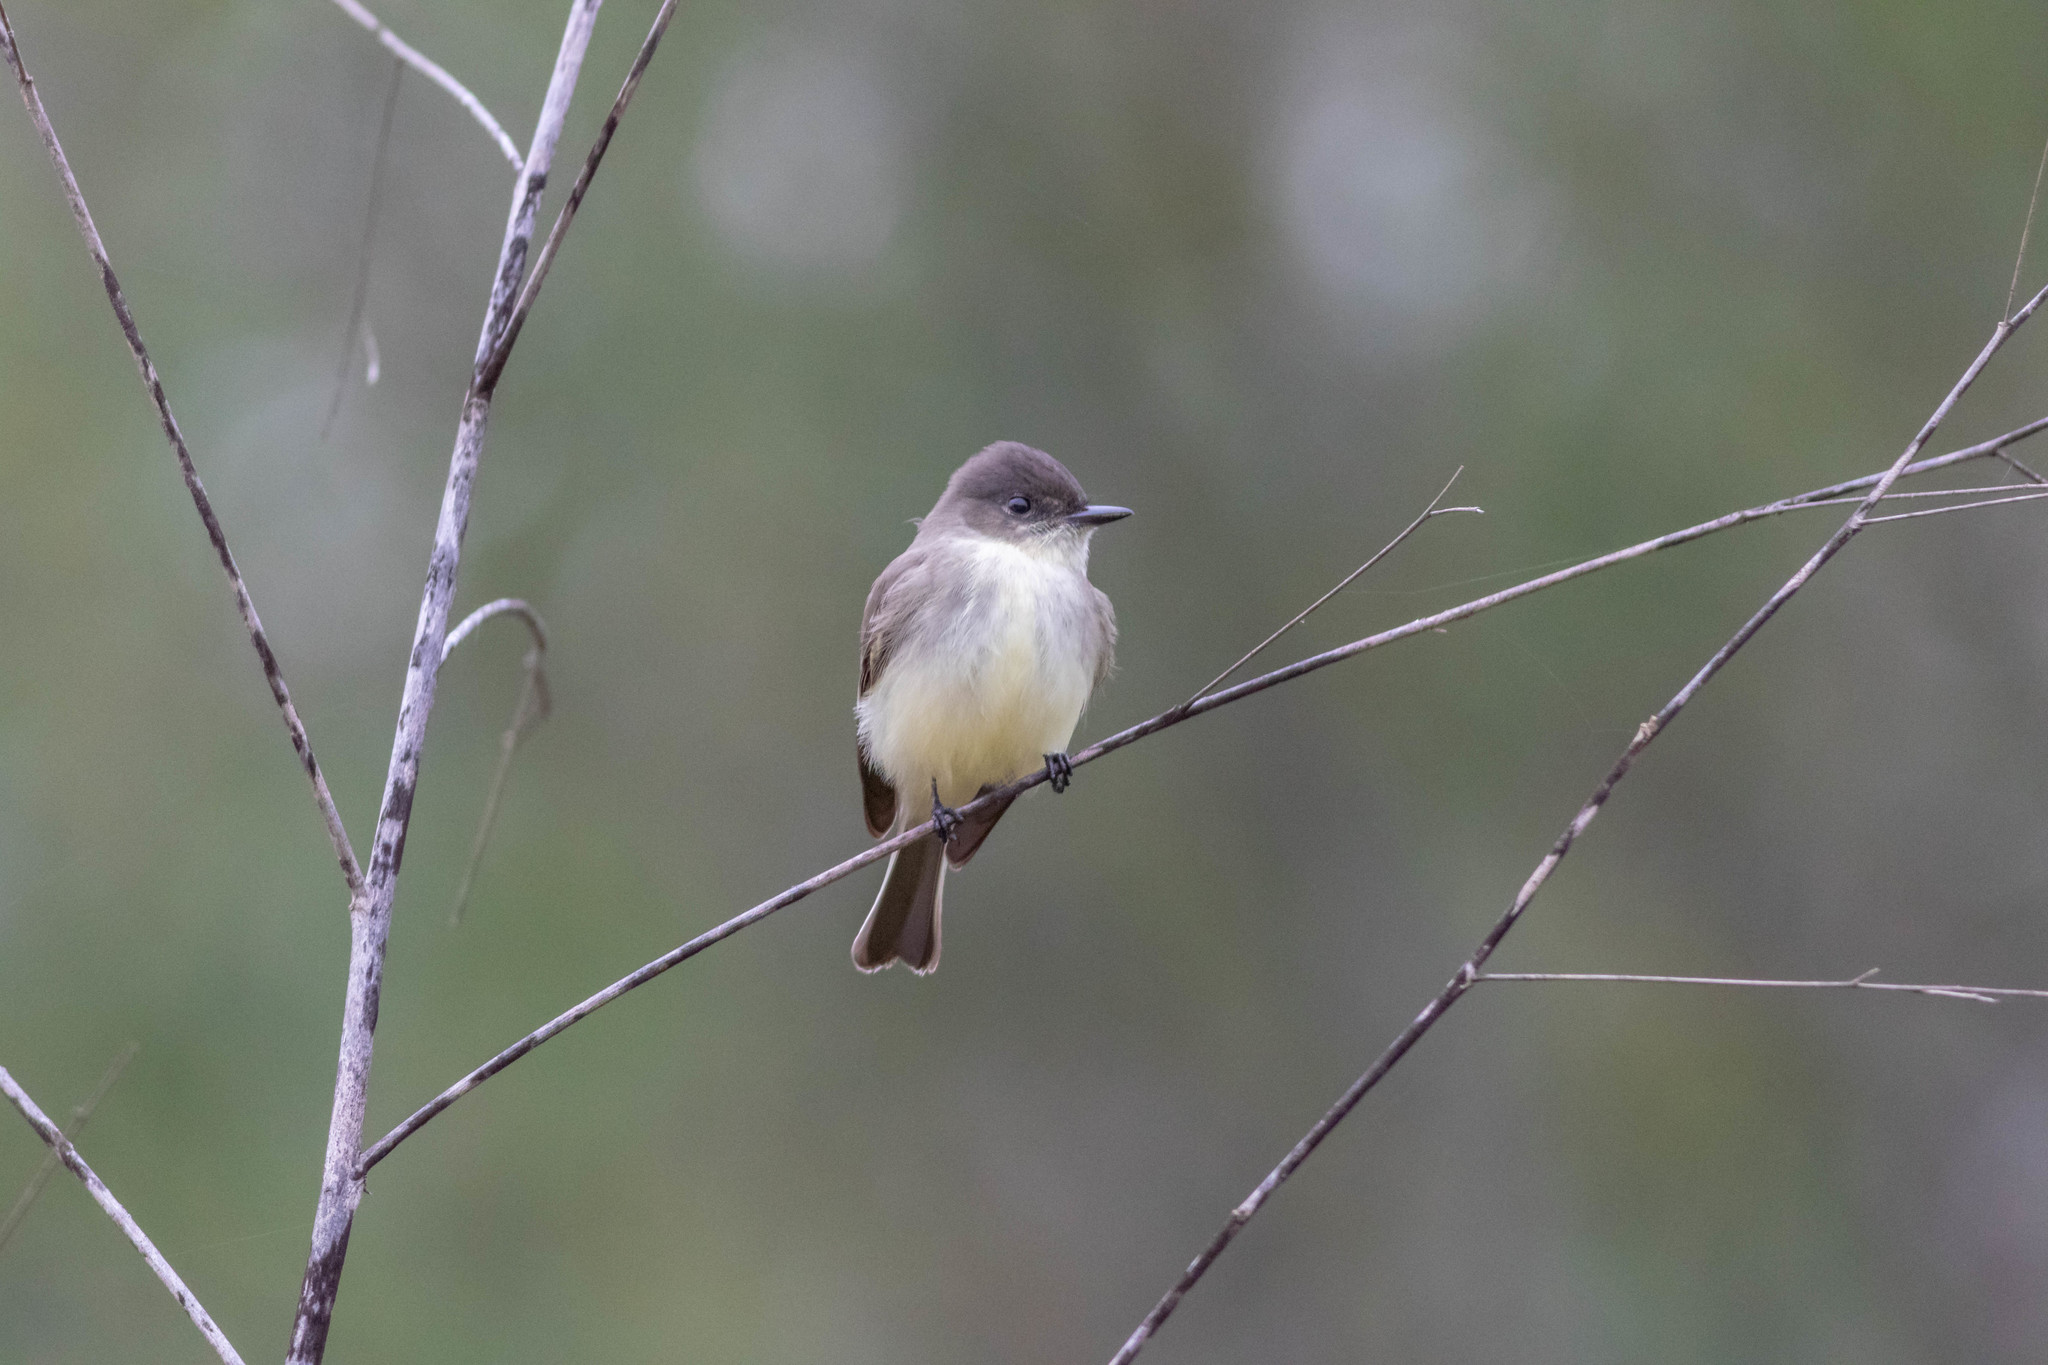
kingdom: Animalia
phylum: Chordata
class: Aves
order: Passeriformes
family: Tyrannidae
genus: Sayornis
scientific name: Sayornis phoebe
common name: Eastern phoebe
